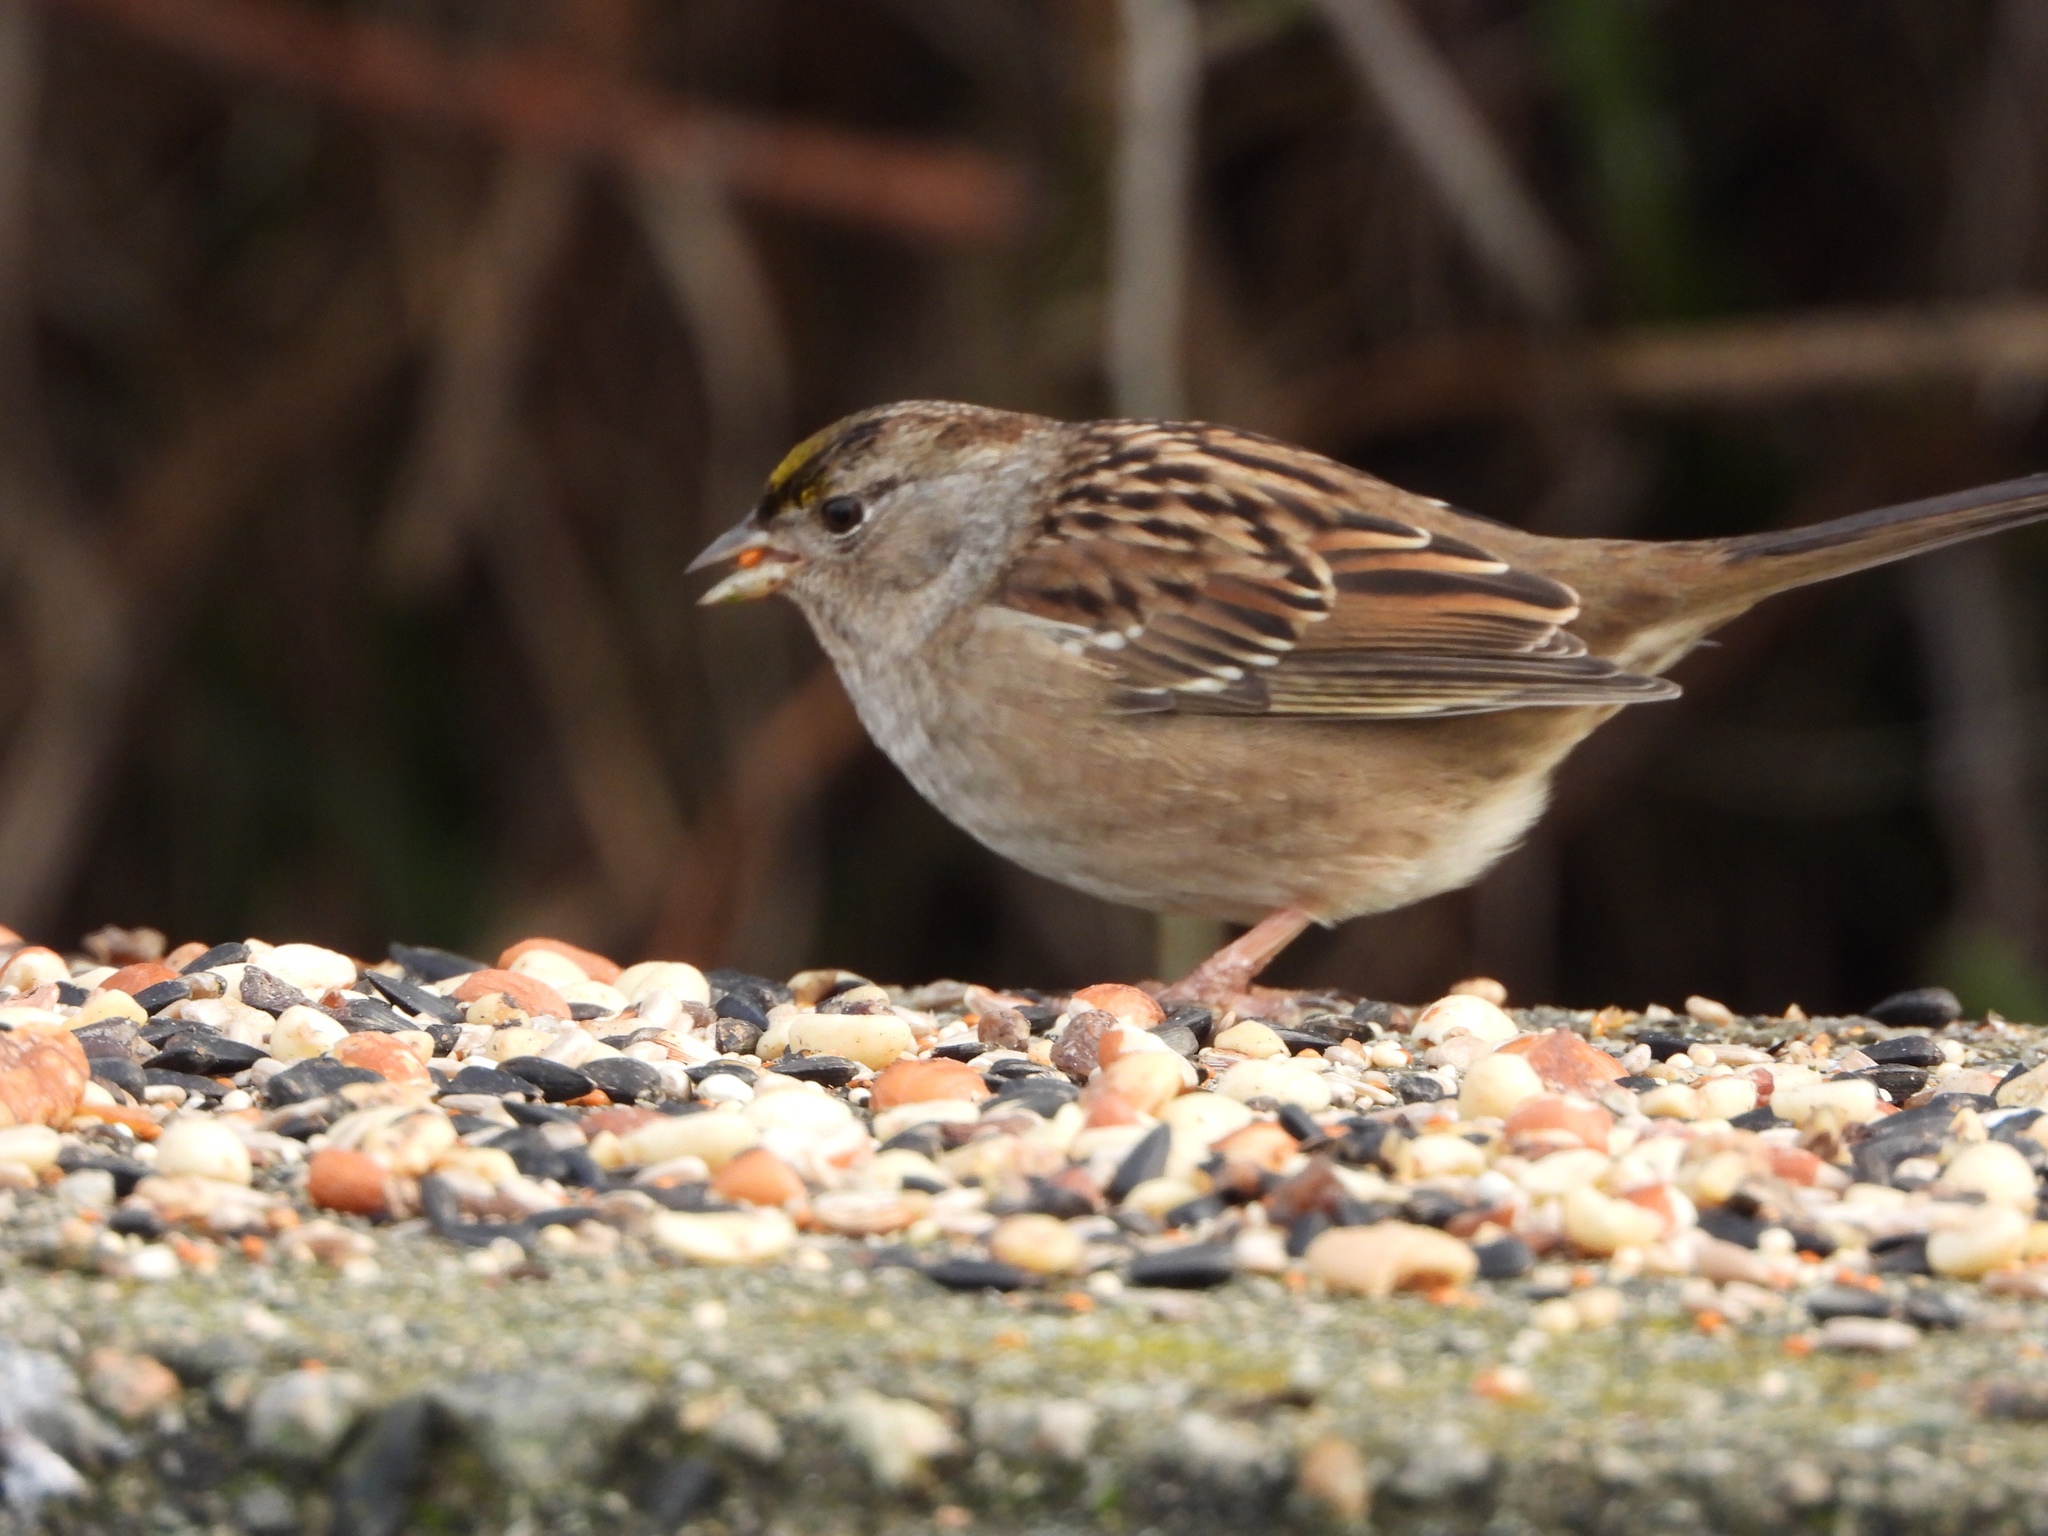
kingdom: Animalia
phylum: Chordata
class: Aves
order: Passeriformes
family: Passerellidae
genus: Zonotrichia
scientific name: Zonotrichia atricapilla
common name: Golden-crowned sparrow
